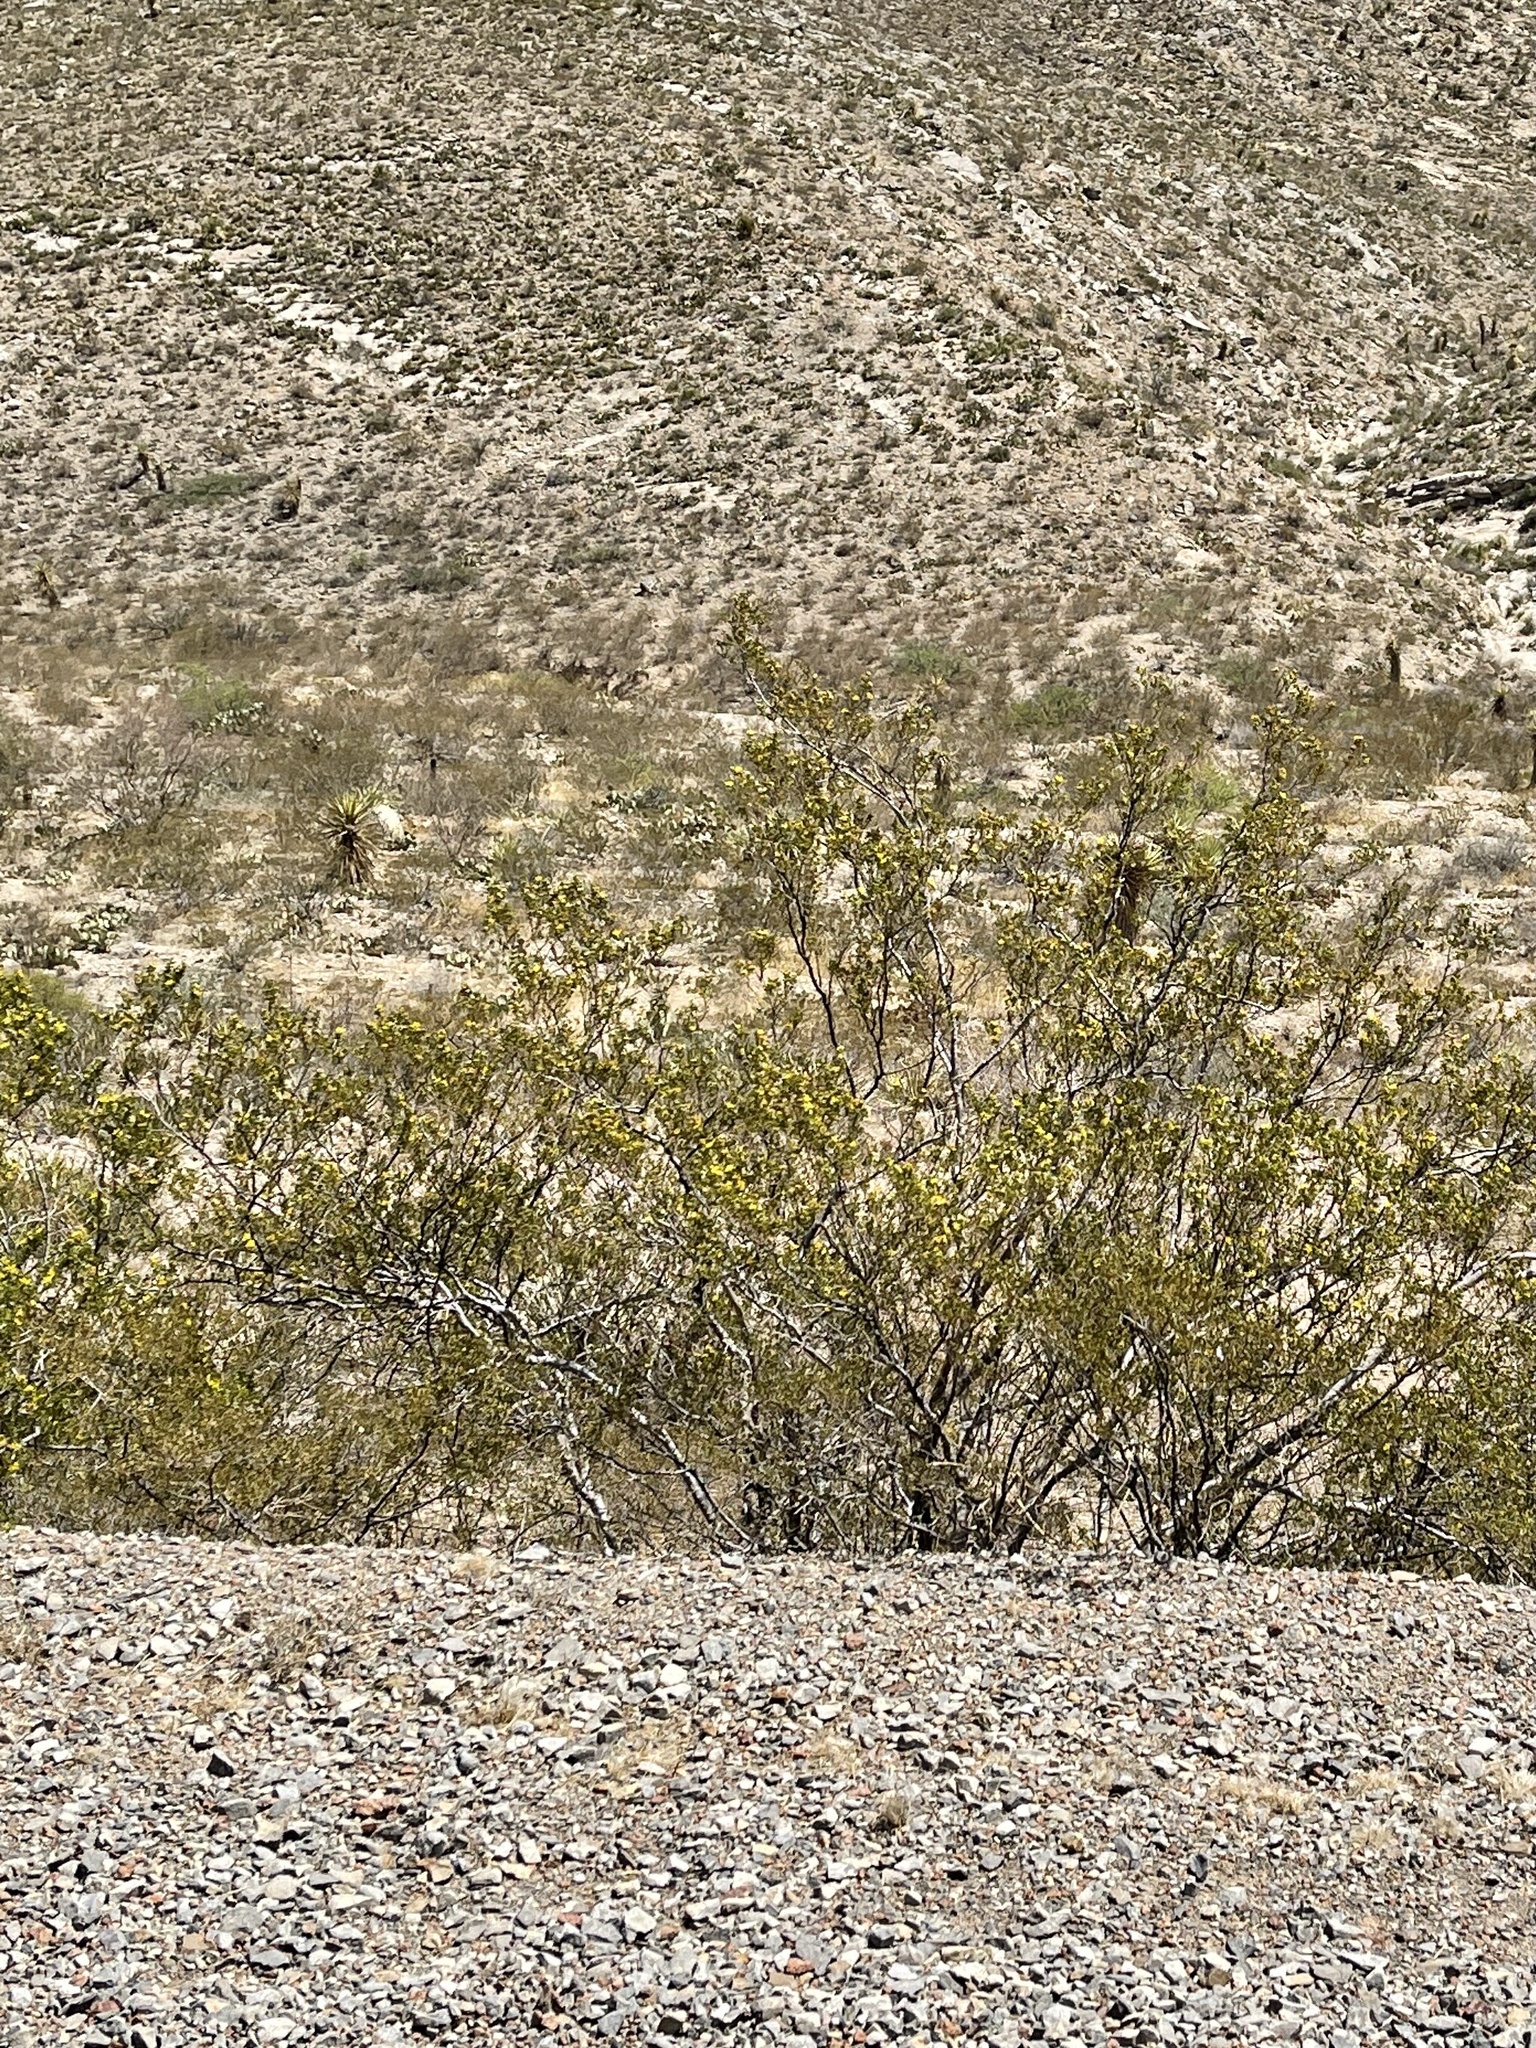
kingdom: Plantae
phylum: Tracheophyta
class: Magnoliopsida
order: Zygophyllales
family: Zygophyllaceae
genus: Larrea
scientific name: Larrea tridentata
